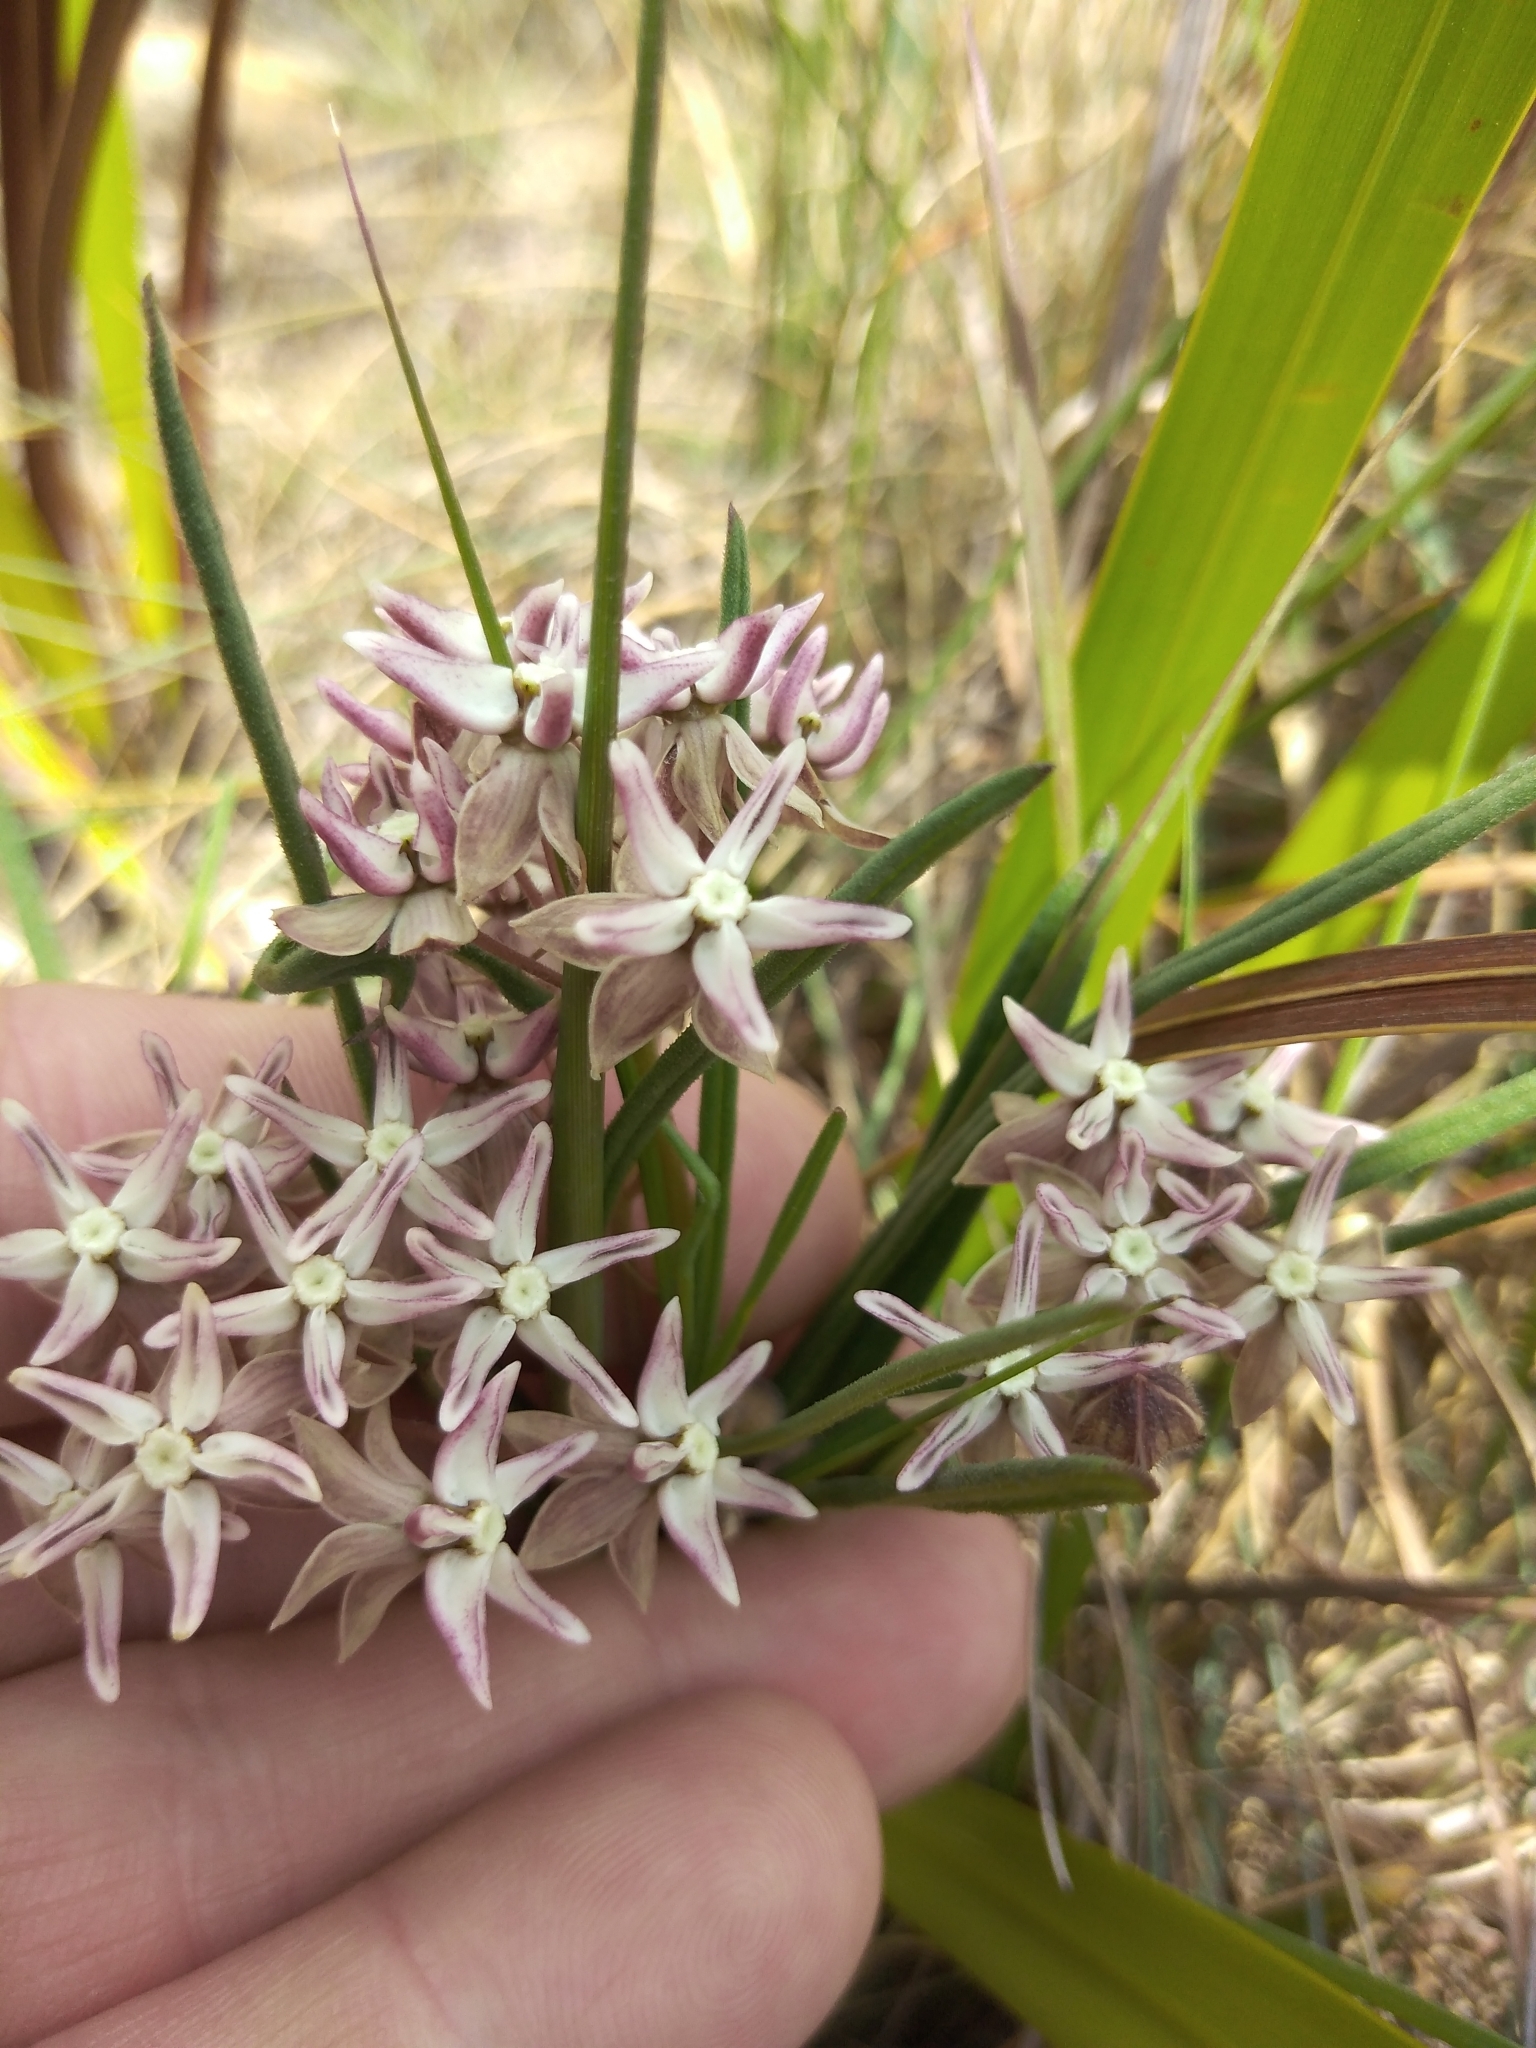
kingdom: Plantae
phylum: Tracheophyta
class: Magnoliopsida
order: Gentianales
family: Apocynaceae
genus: Asclepias
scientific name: Asclepias stellifera
